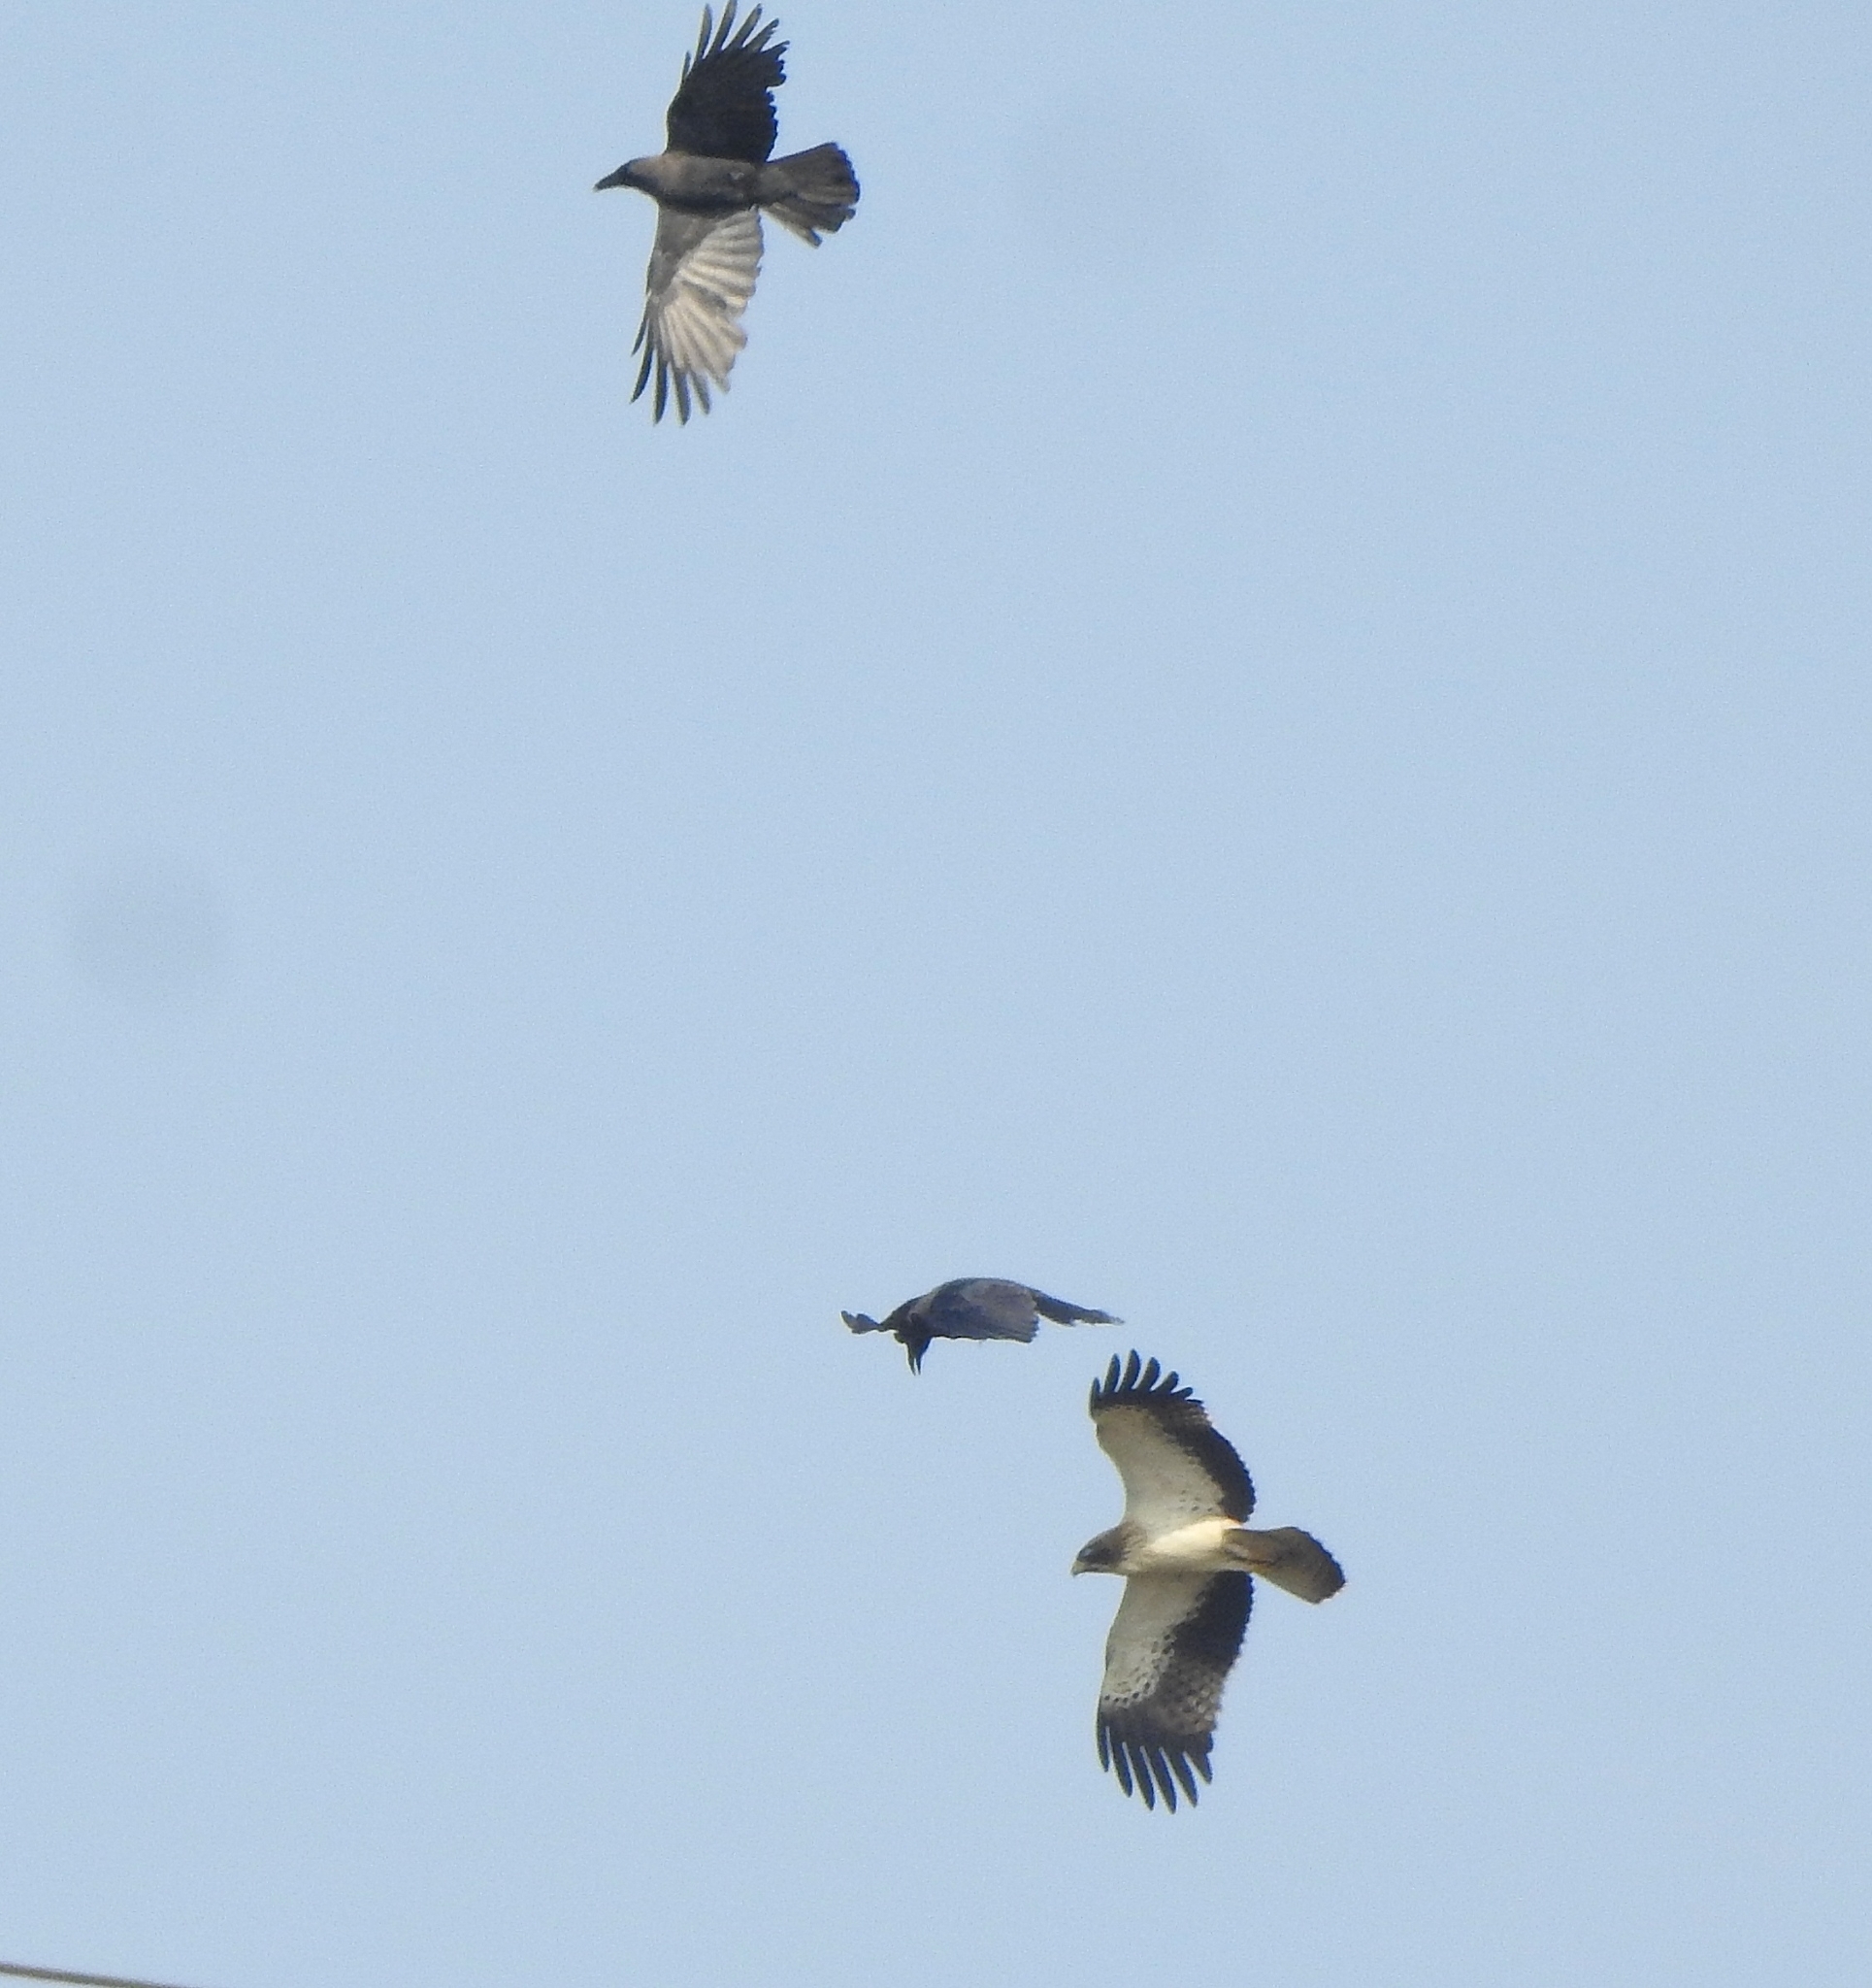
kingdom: Animalia
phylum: Chordata
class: Aves
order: Accipitriformes
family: Accipitridae
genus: Hieraaetus
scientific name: Hieraaetus pennatus
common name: Booted eagle
